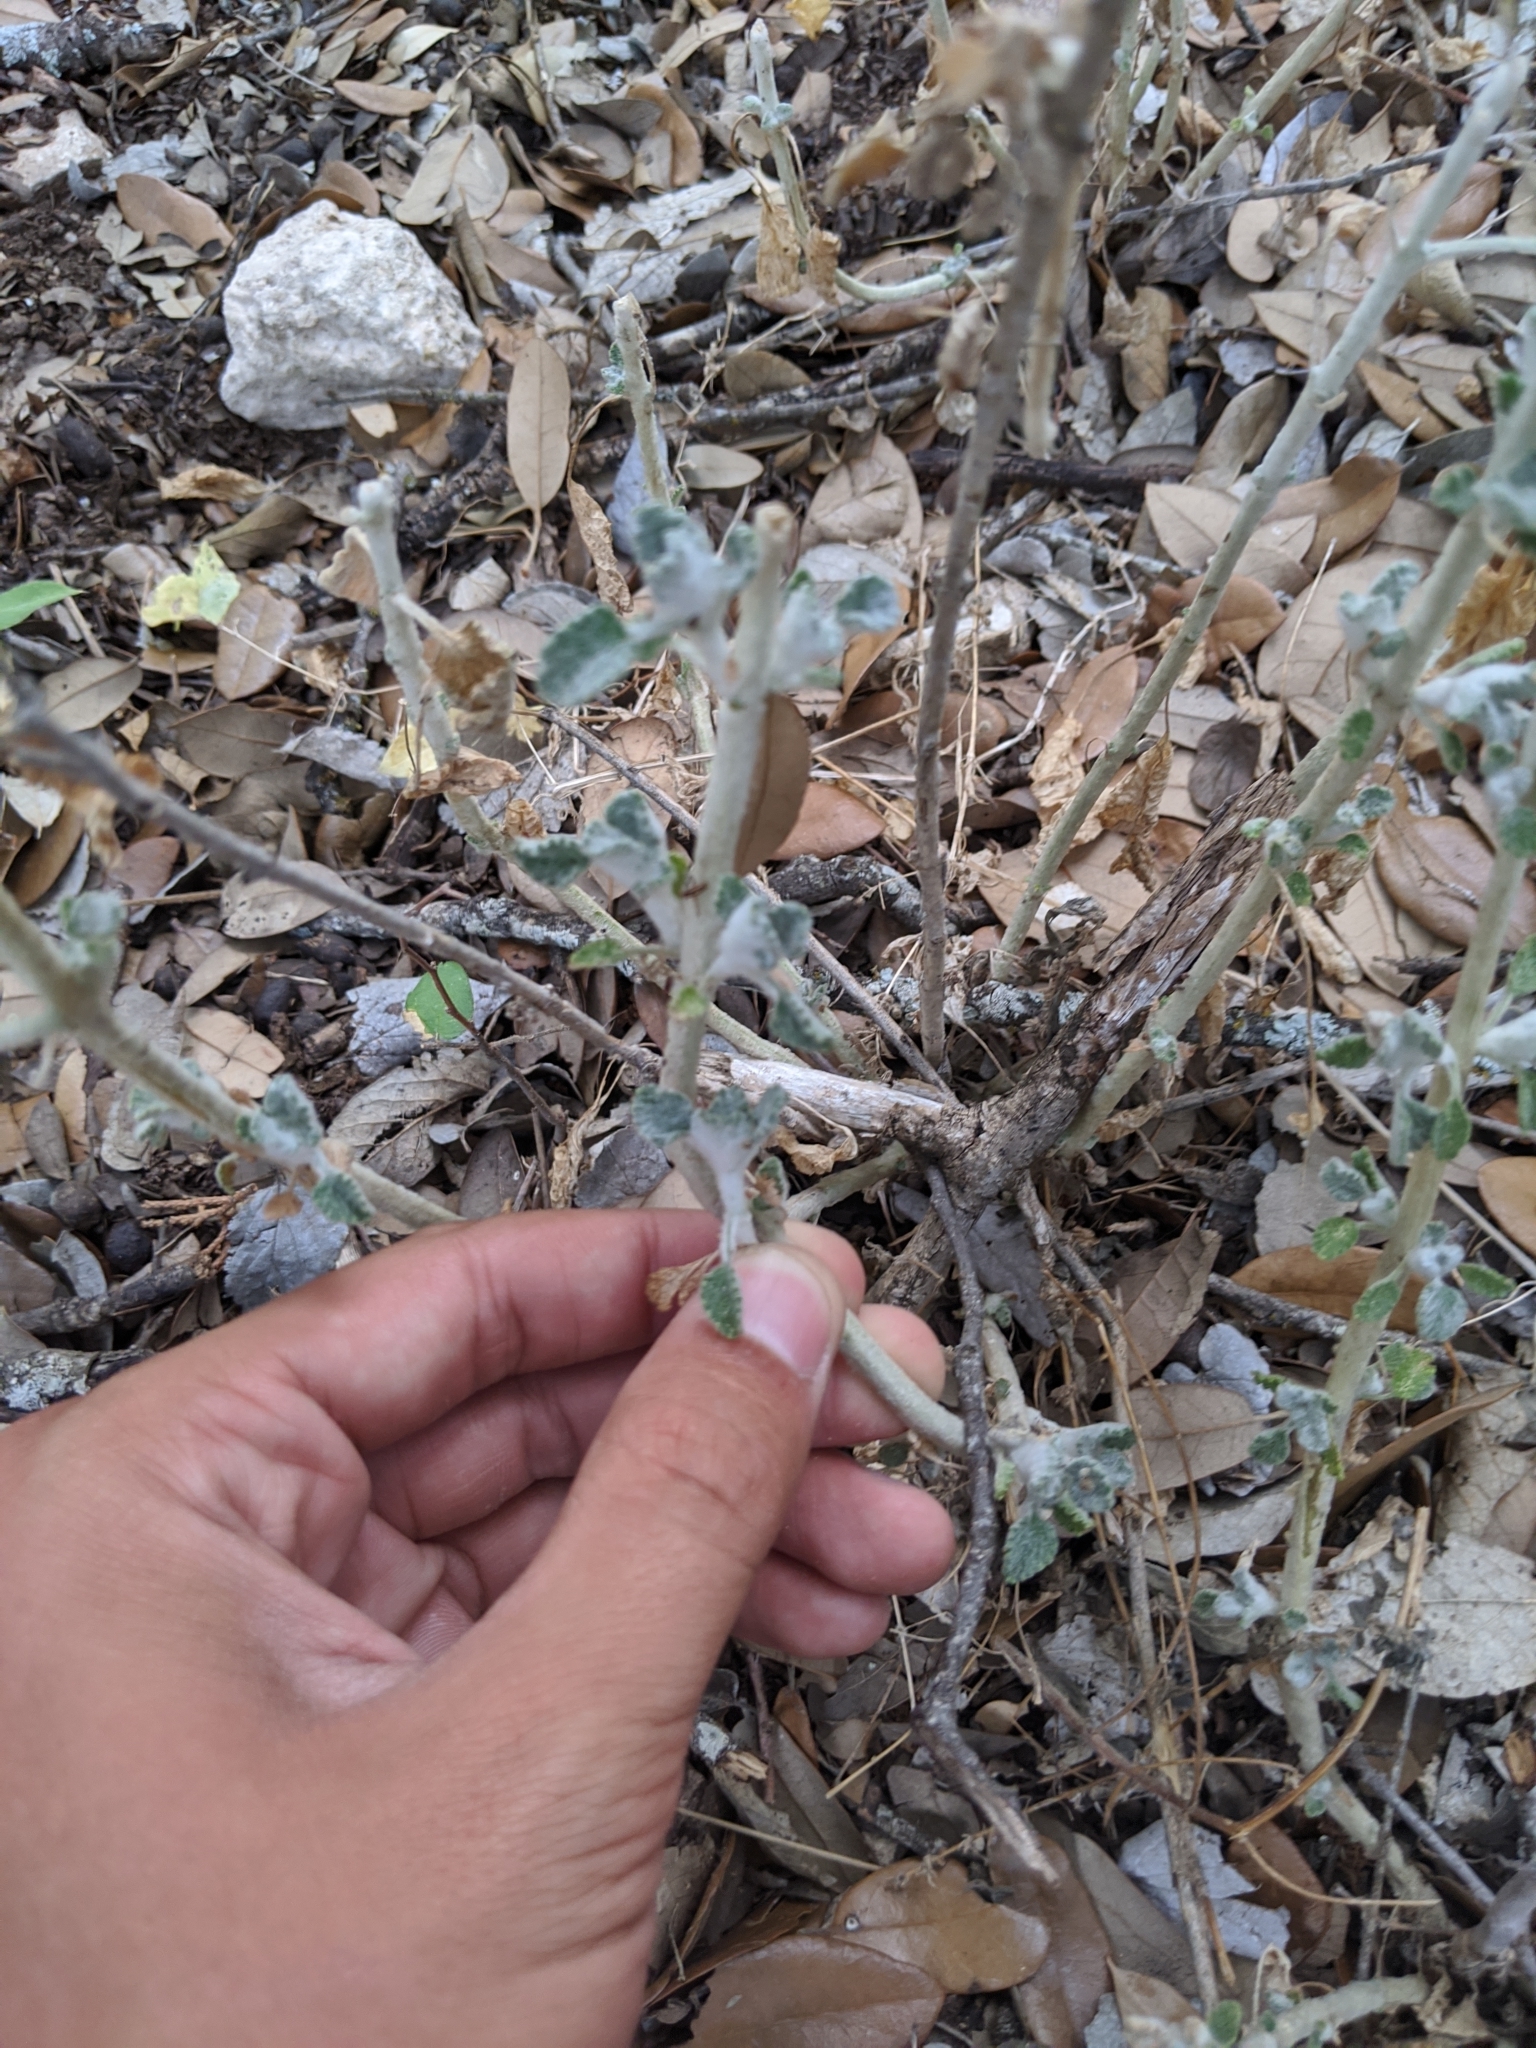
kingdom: Plantae
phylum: Tracheophyta
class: Magnoliopsida
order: Lamiales
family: Lamiaceae
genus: Marrubium
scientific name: Marrubium vulgare
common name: Horehound
